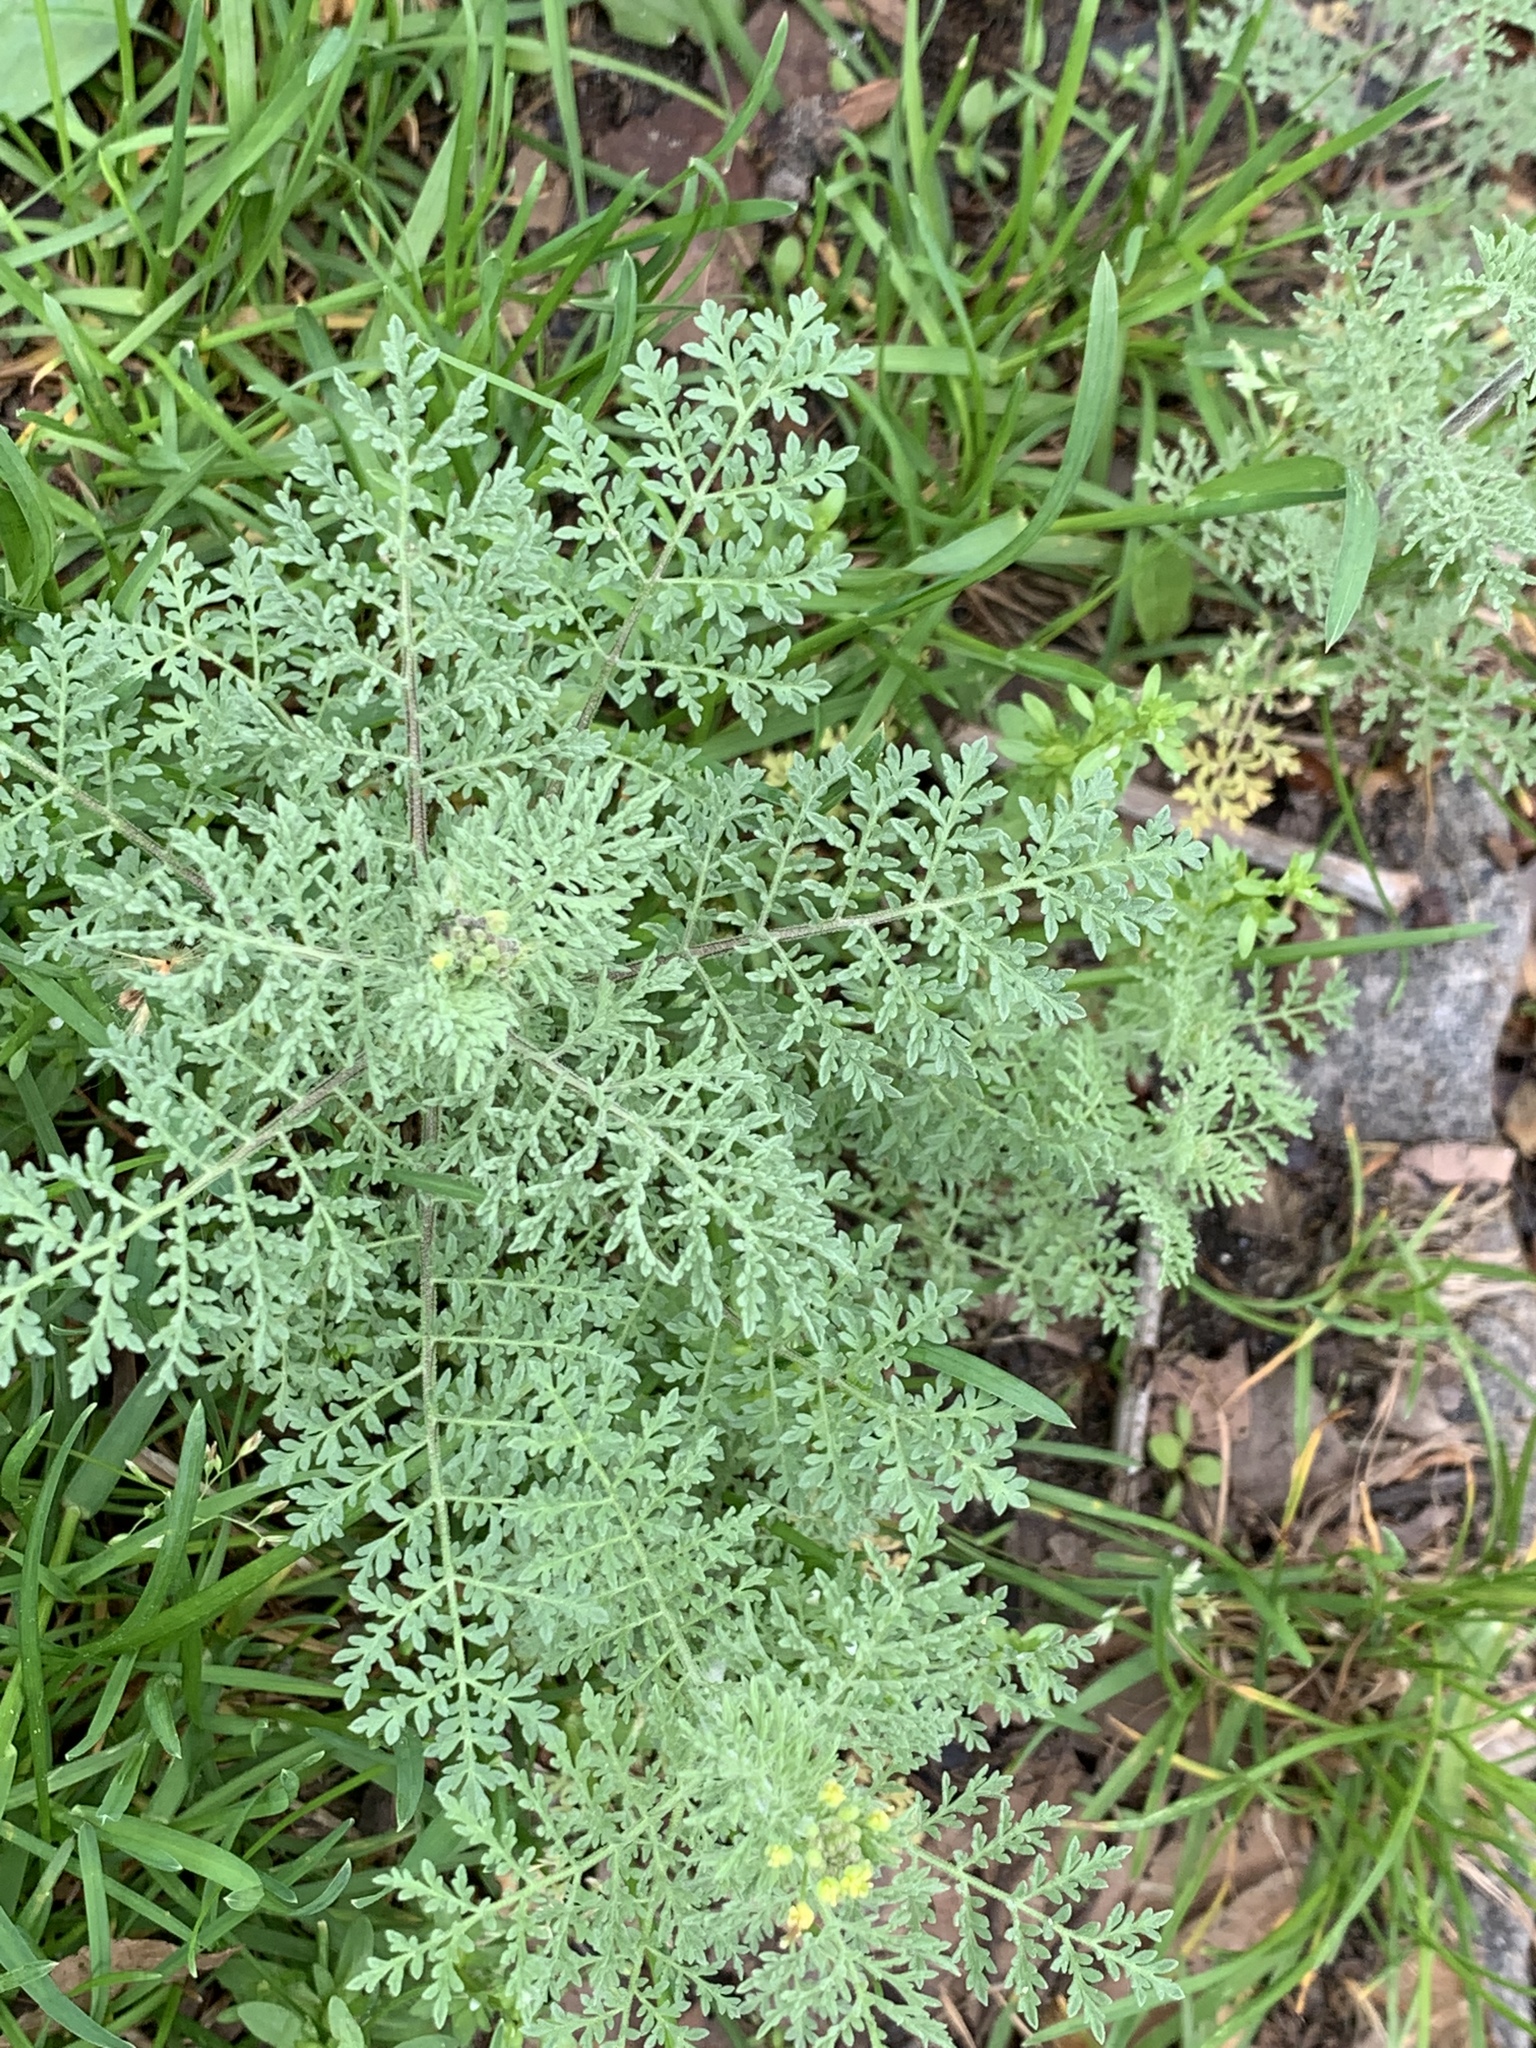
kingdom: Plantae
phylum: Tracheophyta
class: Magnoliopsida
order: Brassicales
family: Brassicaceae
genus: Descurainia
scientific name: Descurainia sophia
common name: Flixweed
